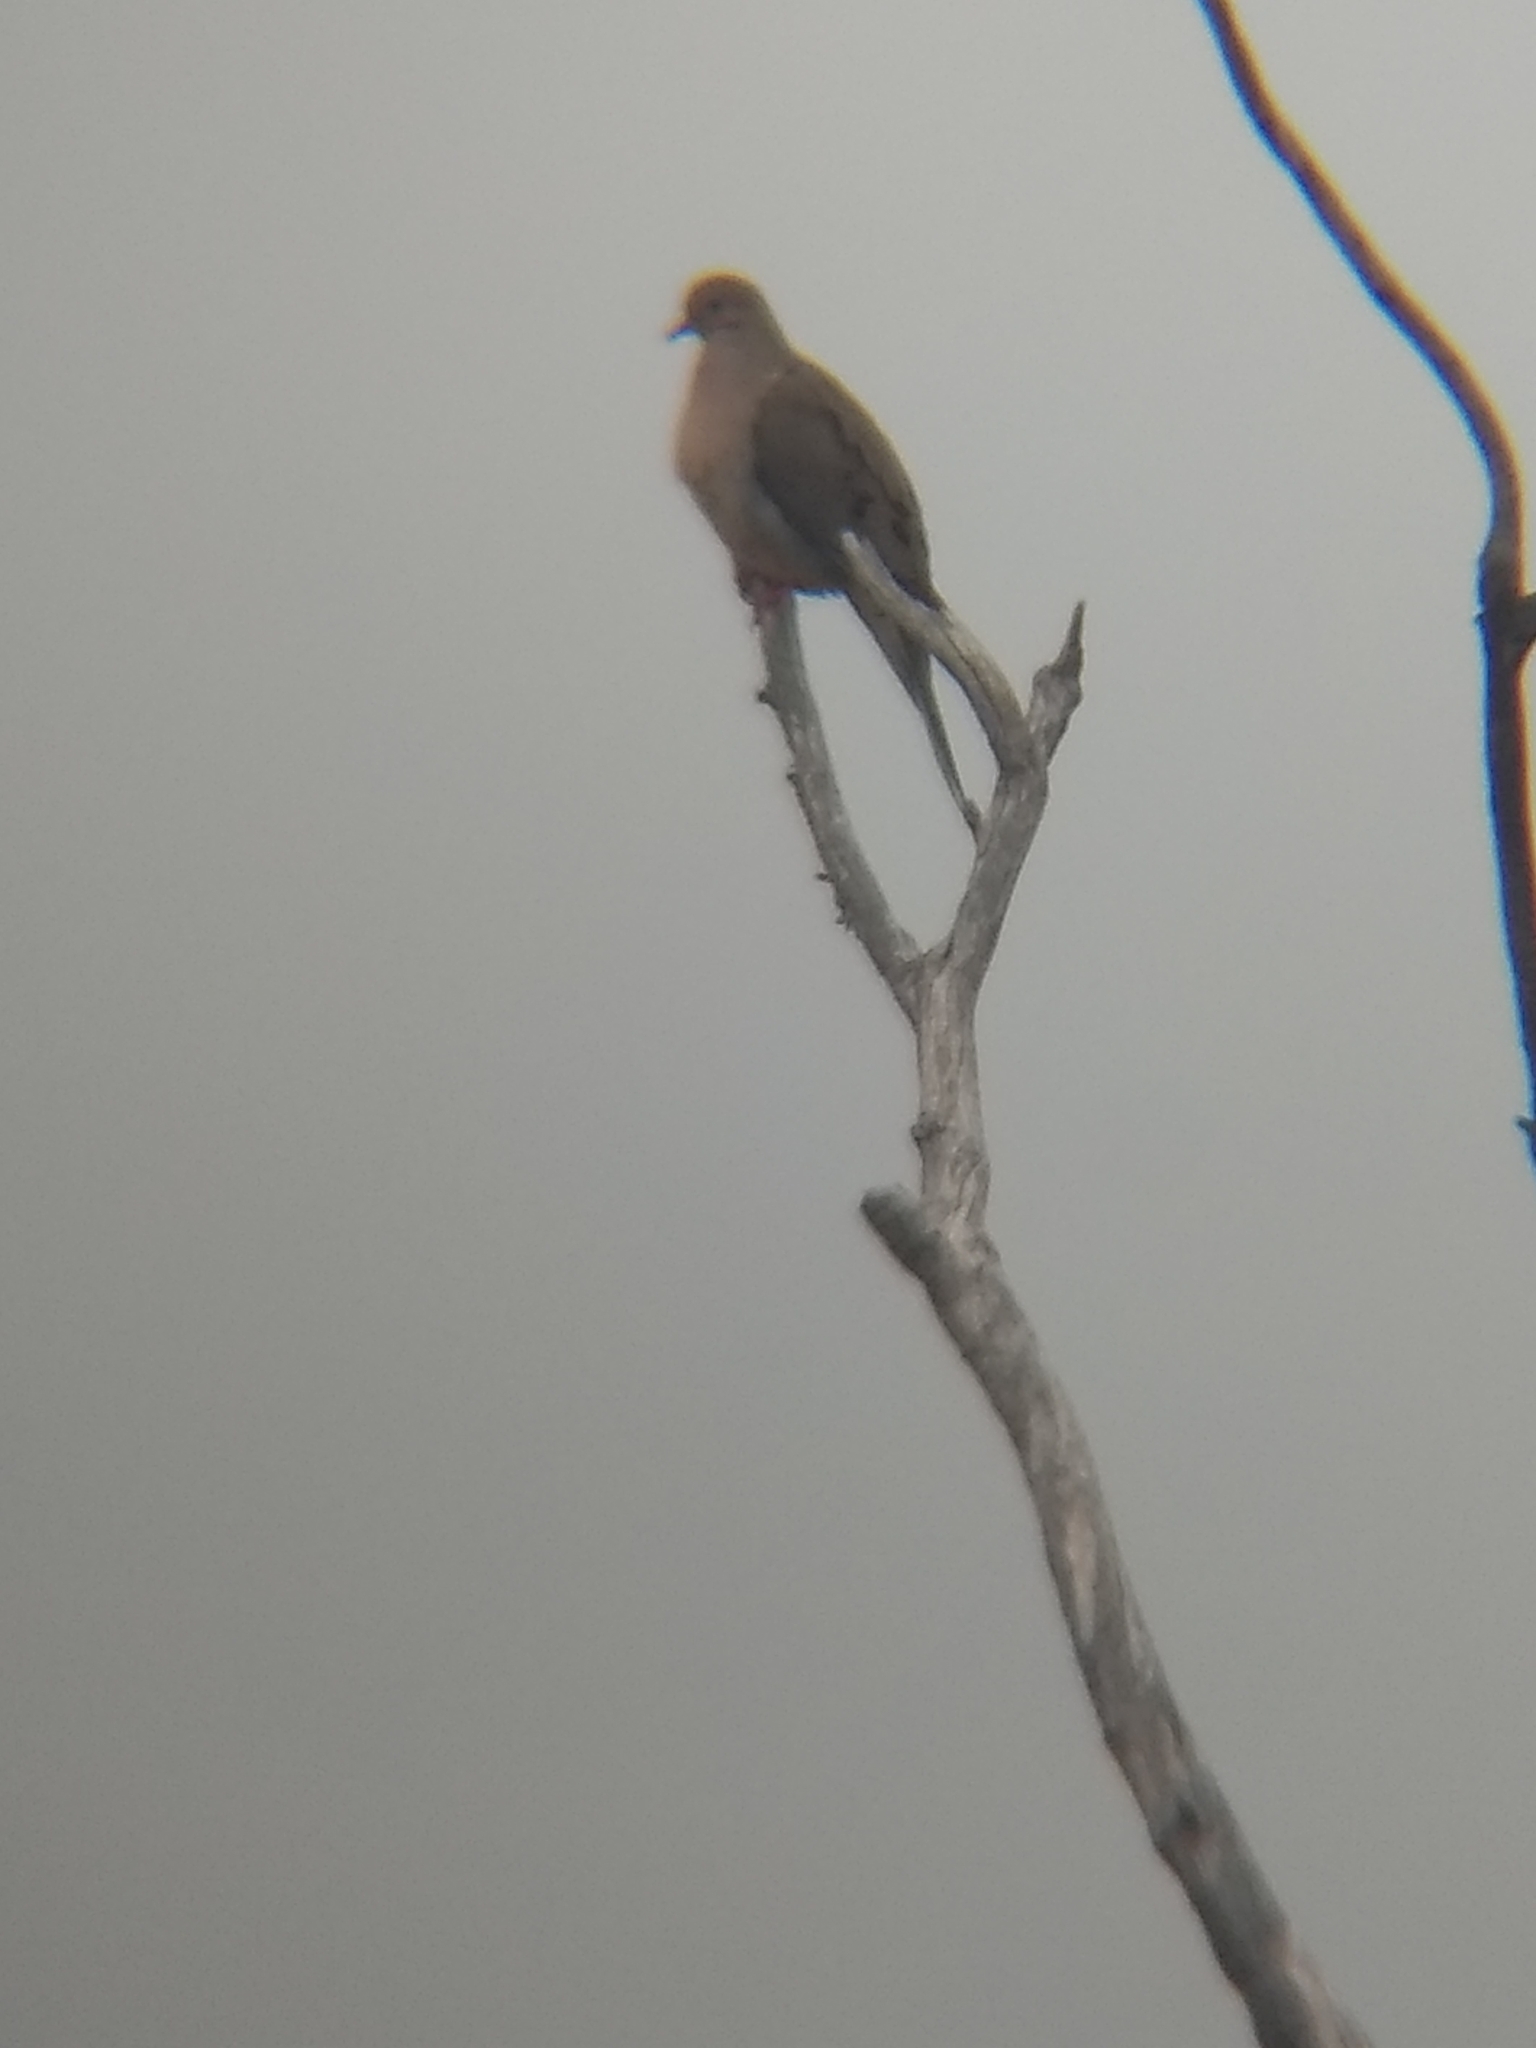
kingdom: Animalia
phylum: Chordata
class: Aves
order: Columbiformes
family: Columbidae
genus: Zenaida
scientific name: Zenaida macroura
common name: Mourning dove
